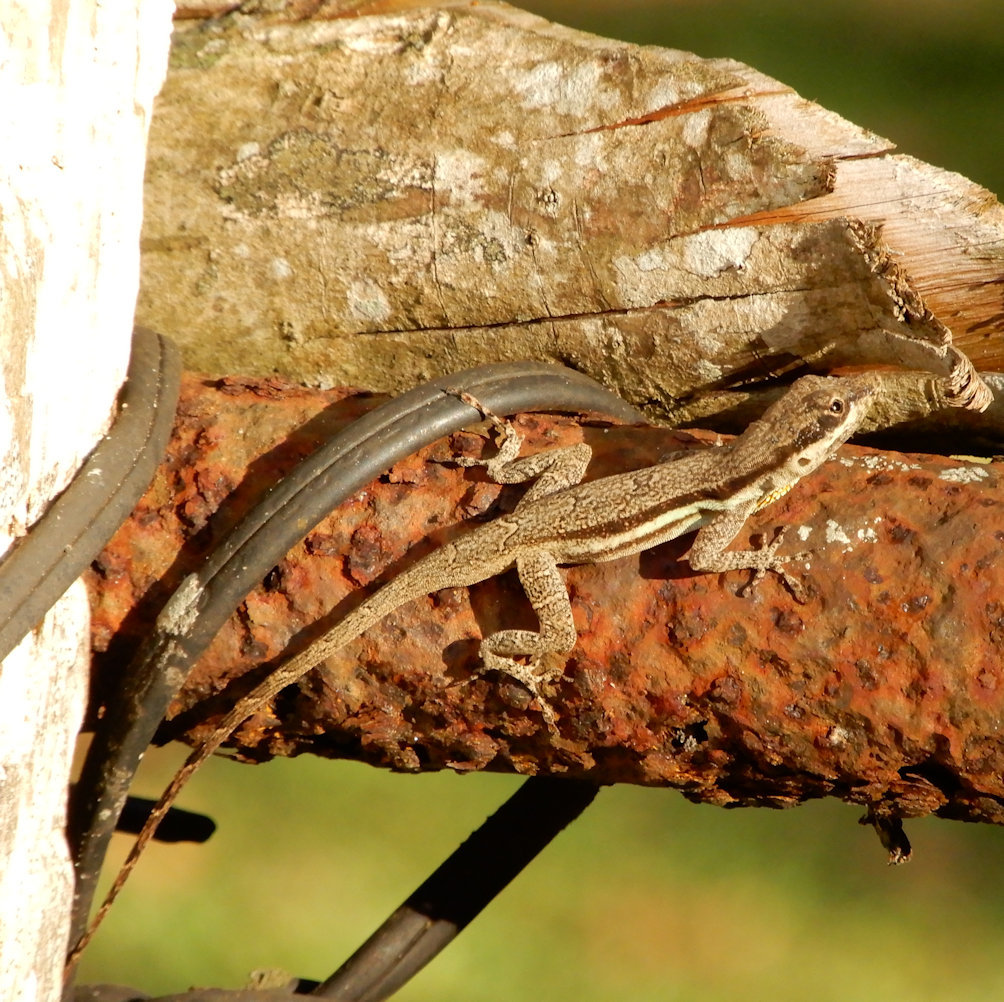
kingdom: Animalia
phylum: Chordata
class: Squamata
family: Dactyloidae
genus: Anolis
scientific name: Anolis opalinus
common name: Bluefields anole
